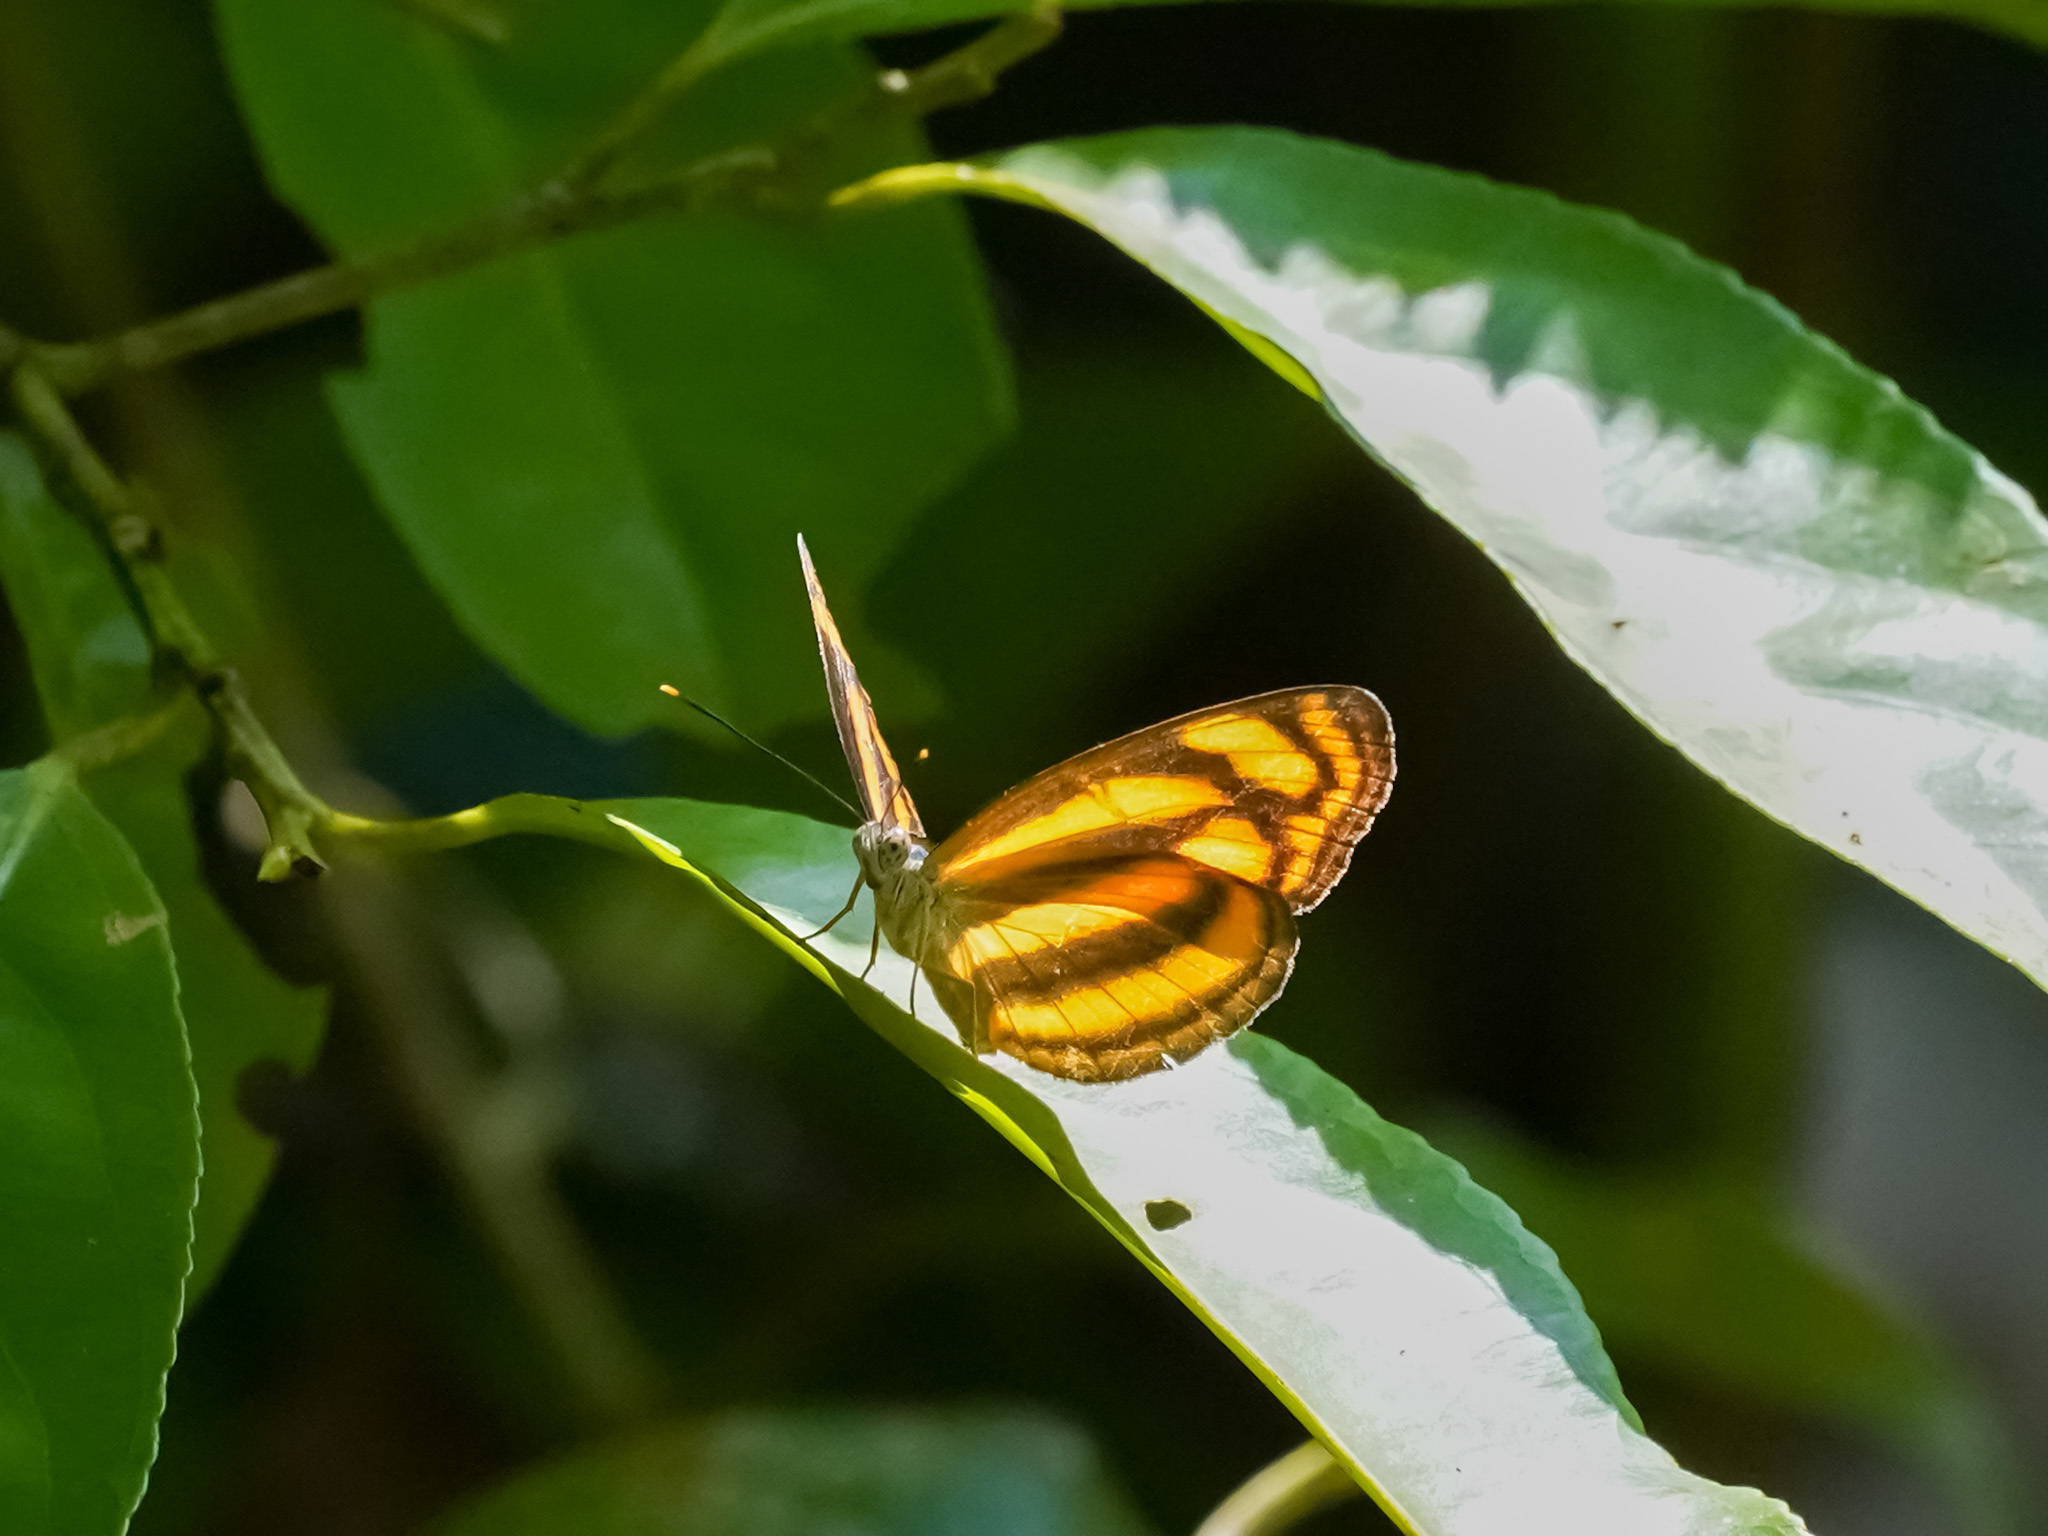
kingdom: Animalia
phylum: Arthropoda
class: Insecta
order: Lepidoptera
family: Nymphalidae
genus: Lasippa
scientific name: Lasippa tiga
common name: Malayan lascar
